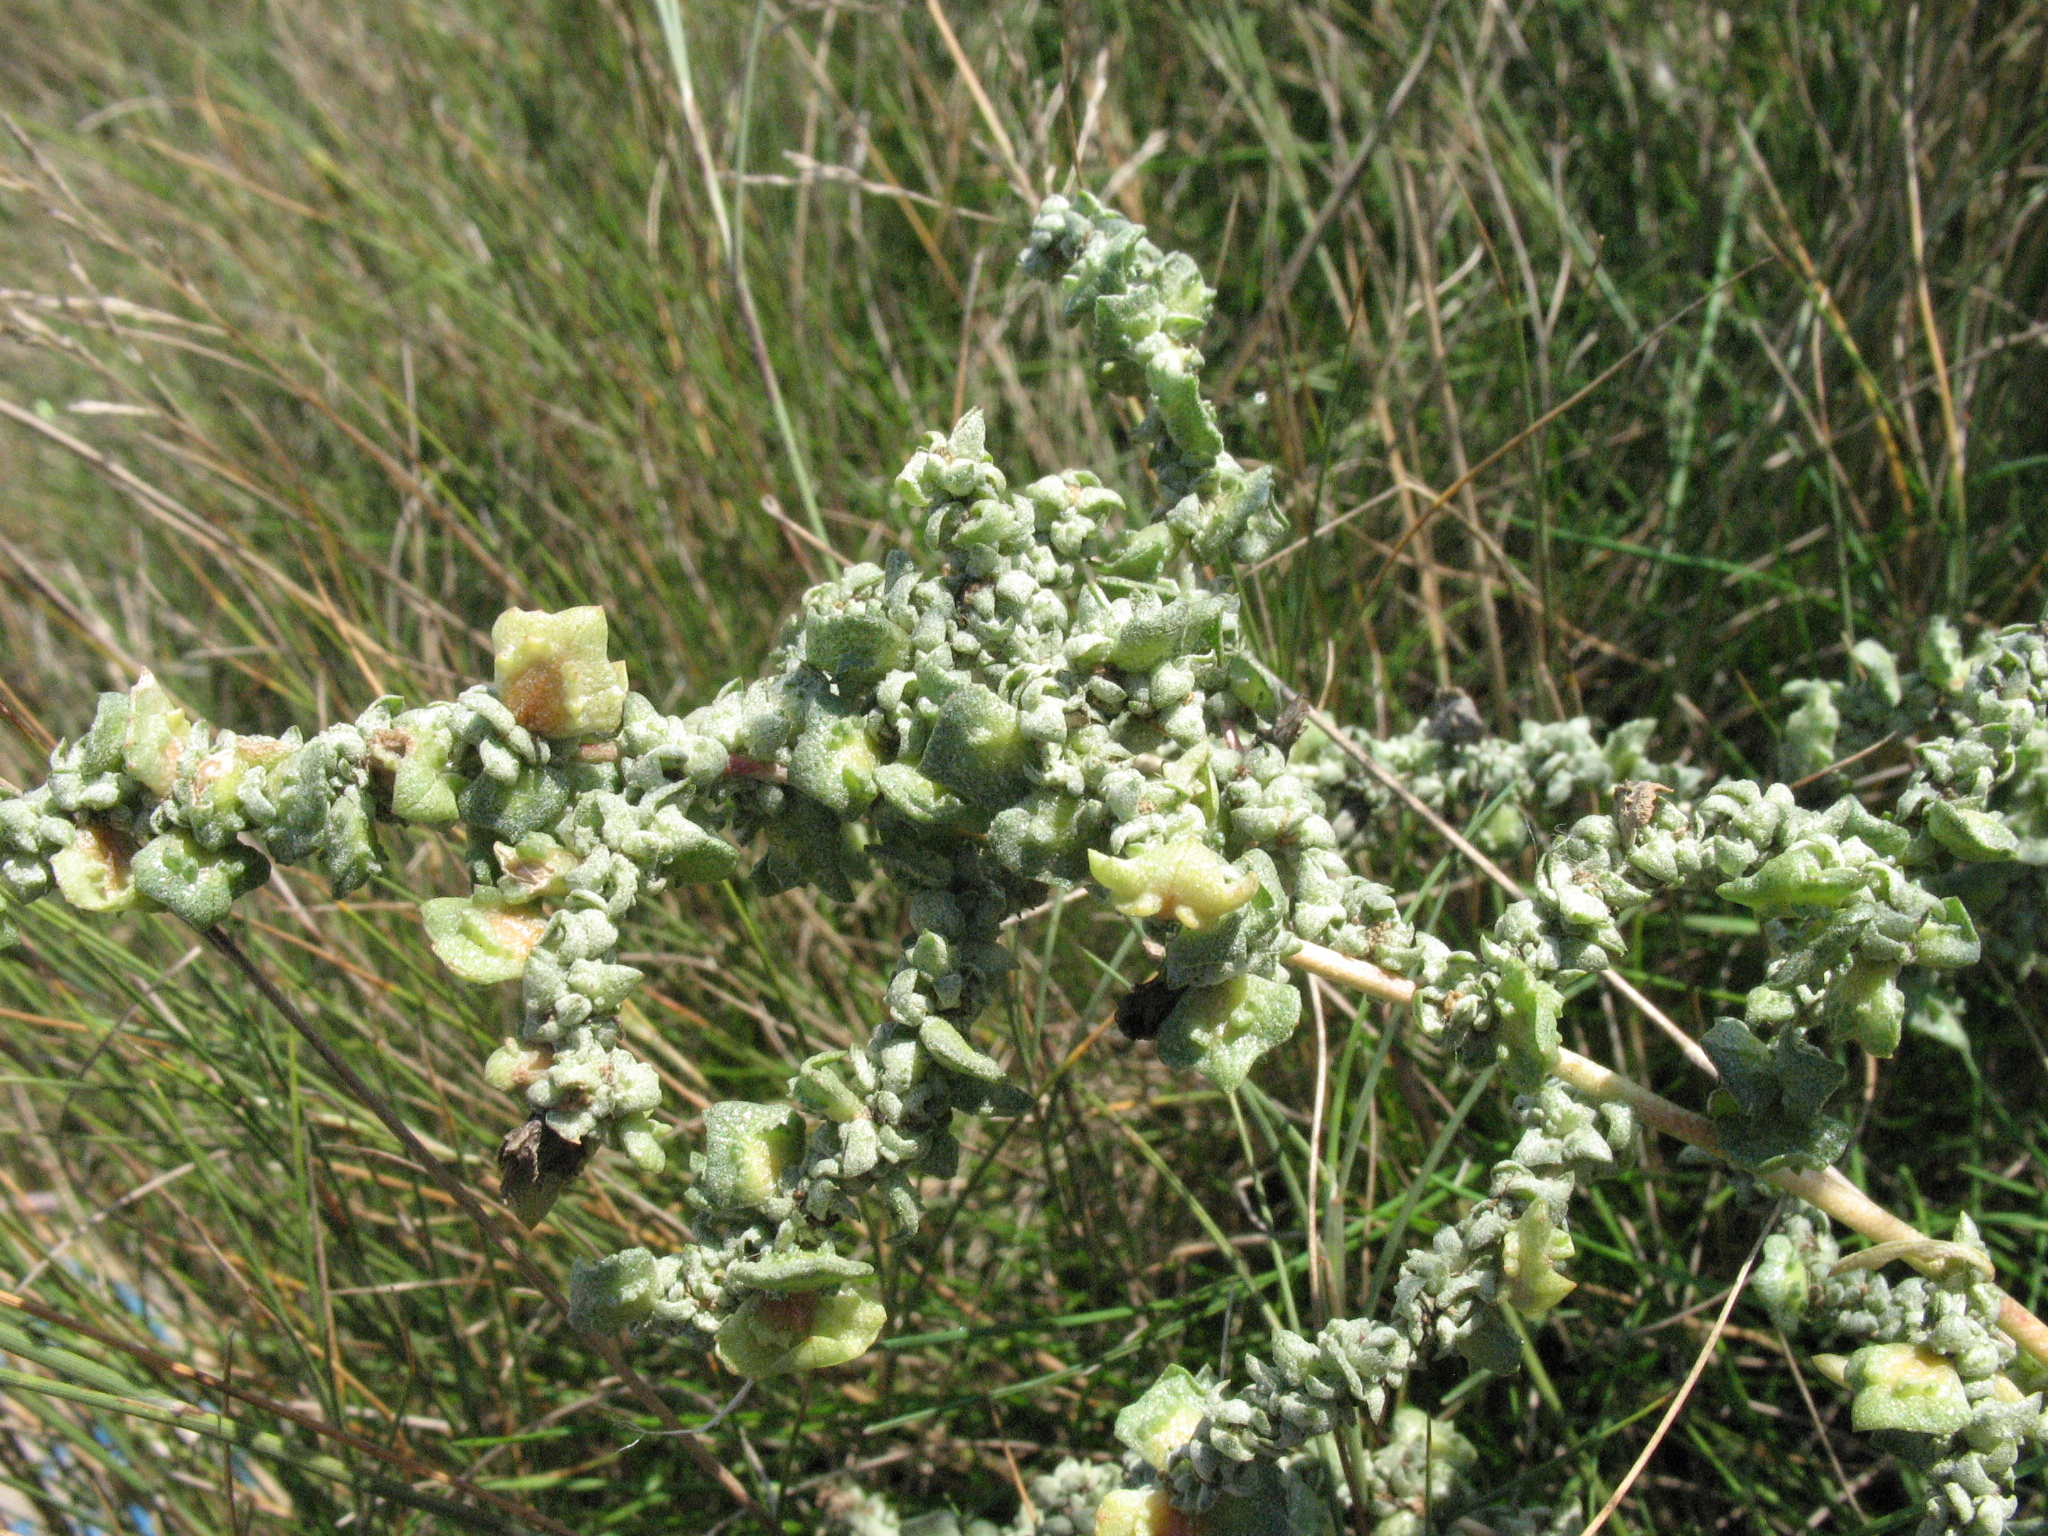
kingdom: Plantae
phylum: Tracheophyta
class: Magnoliopsida
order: Caryophyllales
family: Amaranthaceae
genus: Atriplex
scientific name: Atriplex tatarica
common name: Tatarian orache
